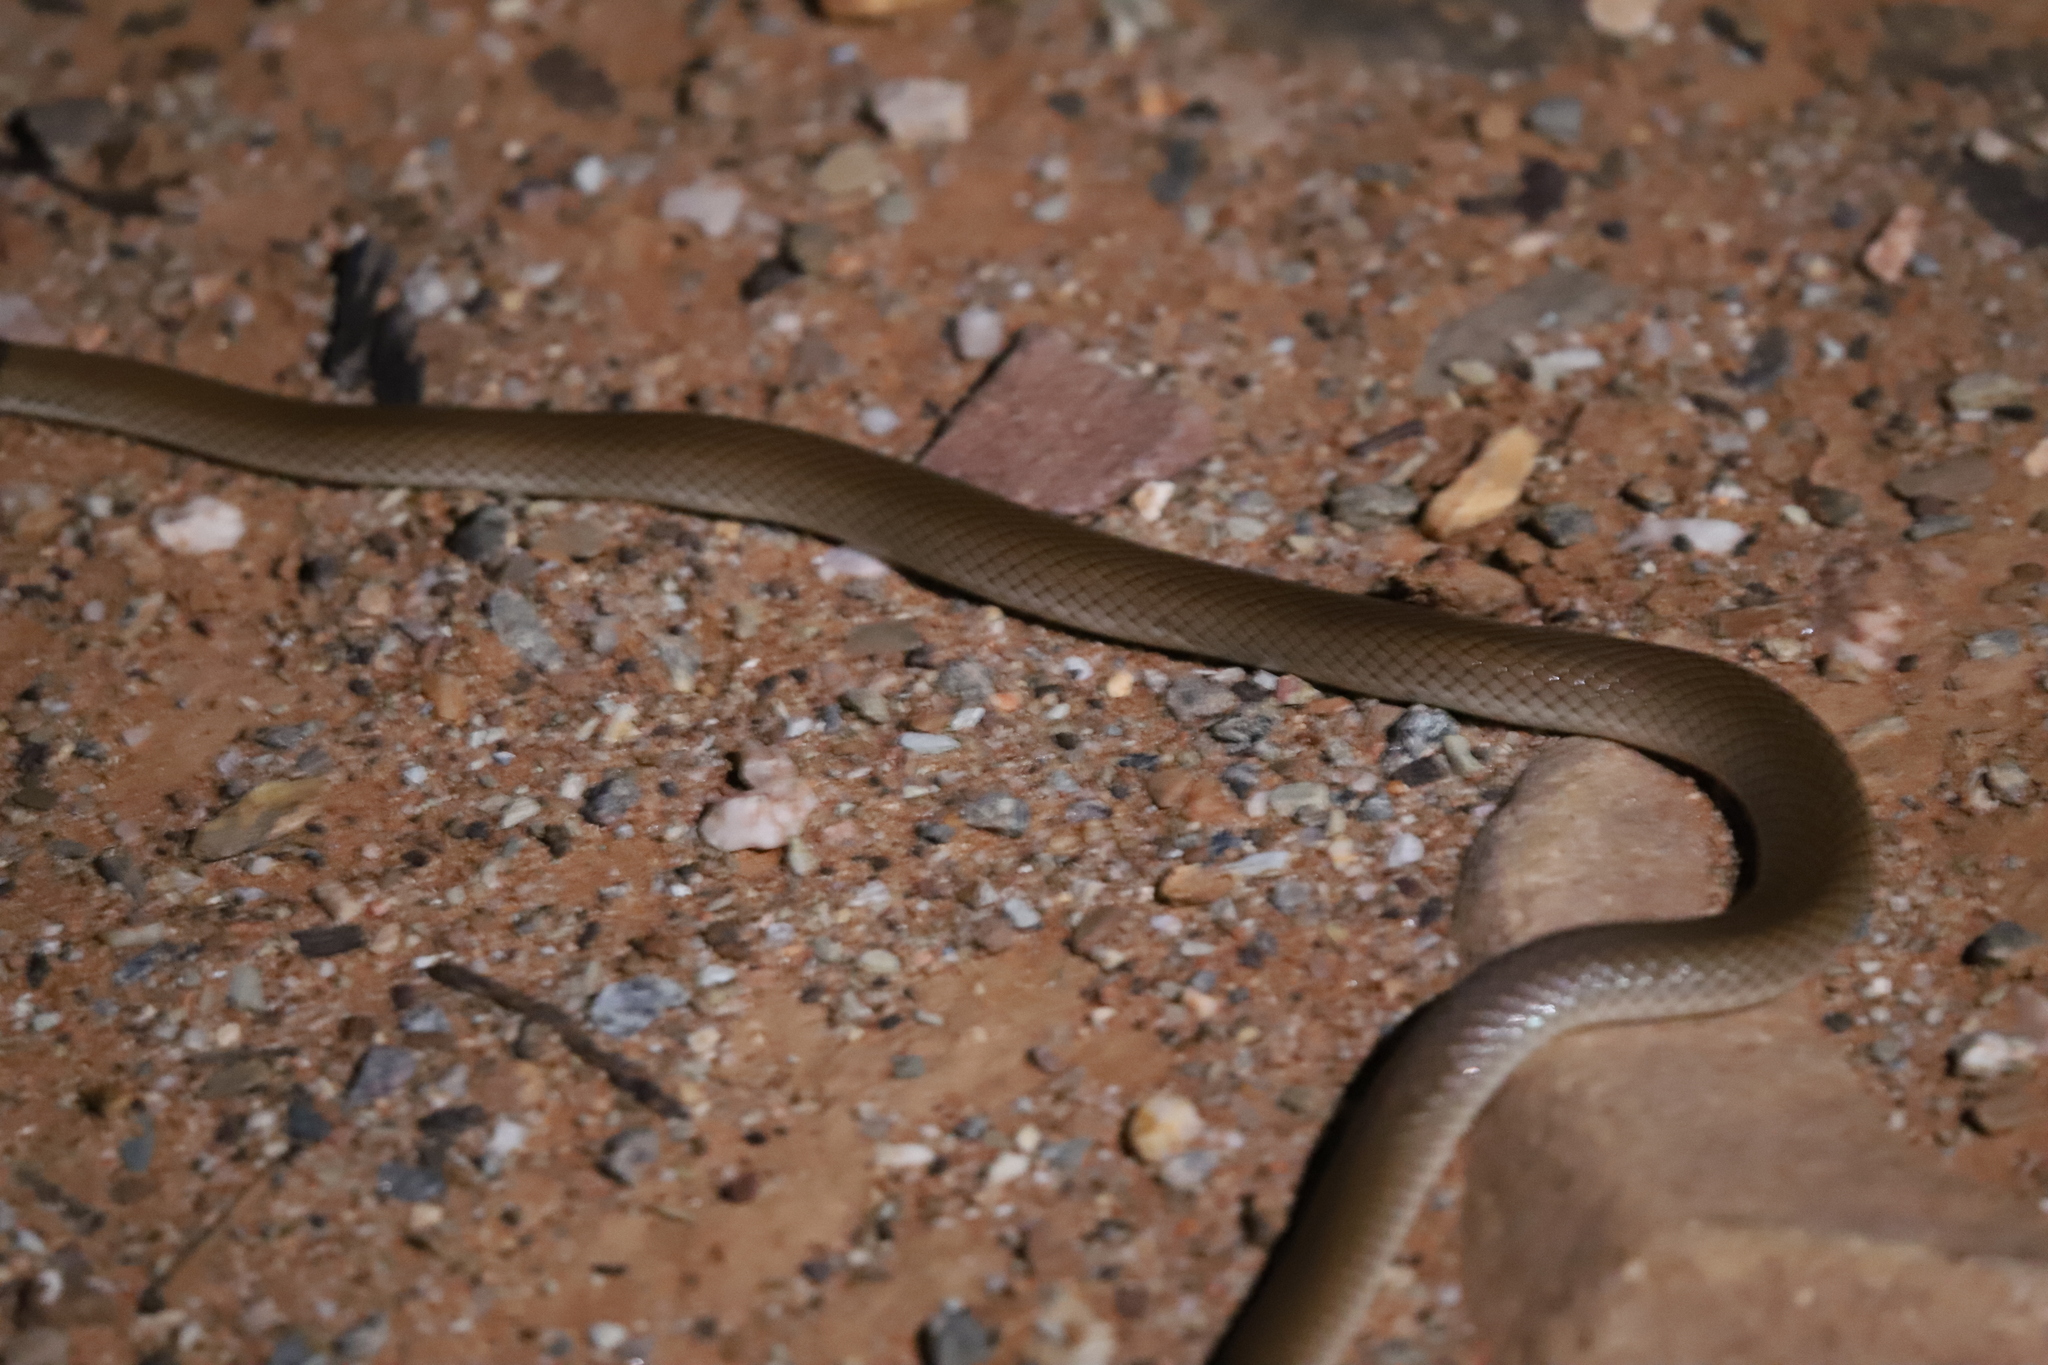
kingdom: Animalia
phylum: Chordata
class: Squamata
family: Elapidae
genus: Suta
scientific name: Suta suta
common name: Curl snake
